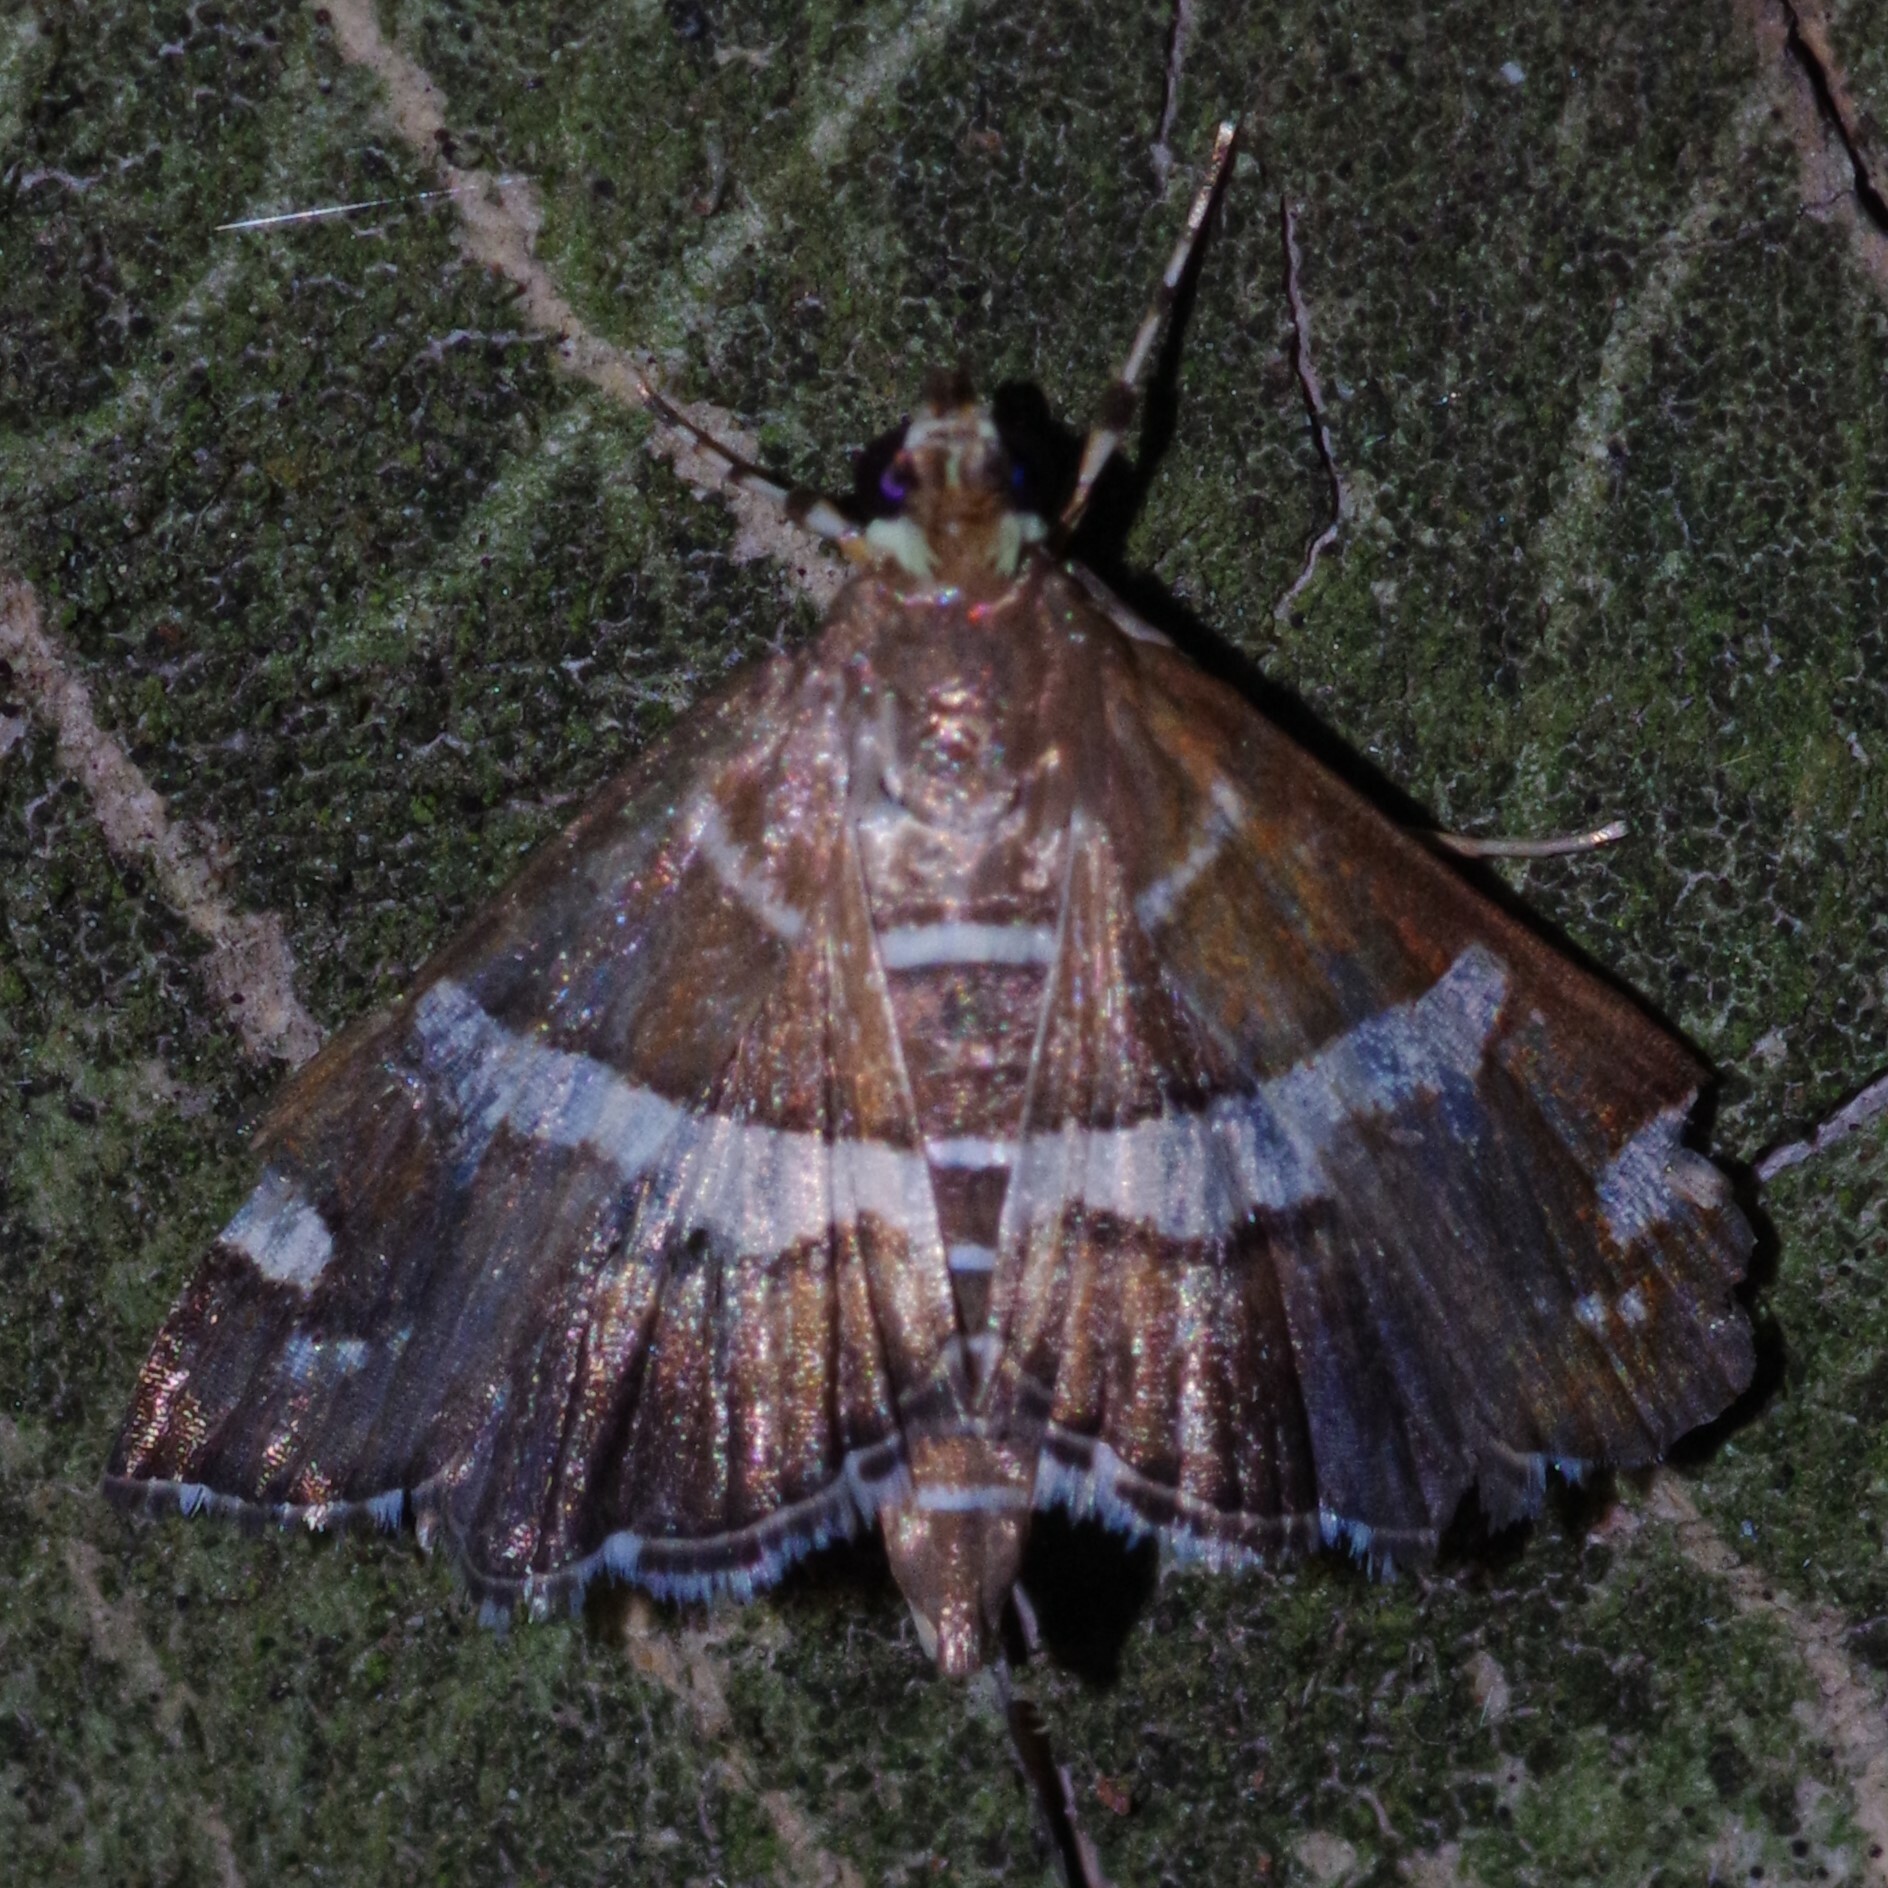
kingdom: Animalia
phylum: Arthropoda
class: Insecta
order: Lepidoptera
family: Crambidae
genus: Spoladea
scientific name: Spoladea recurvalis
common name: Beet webworm moth
